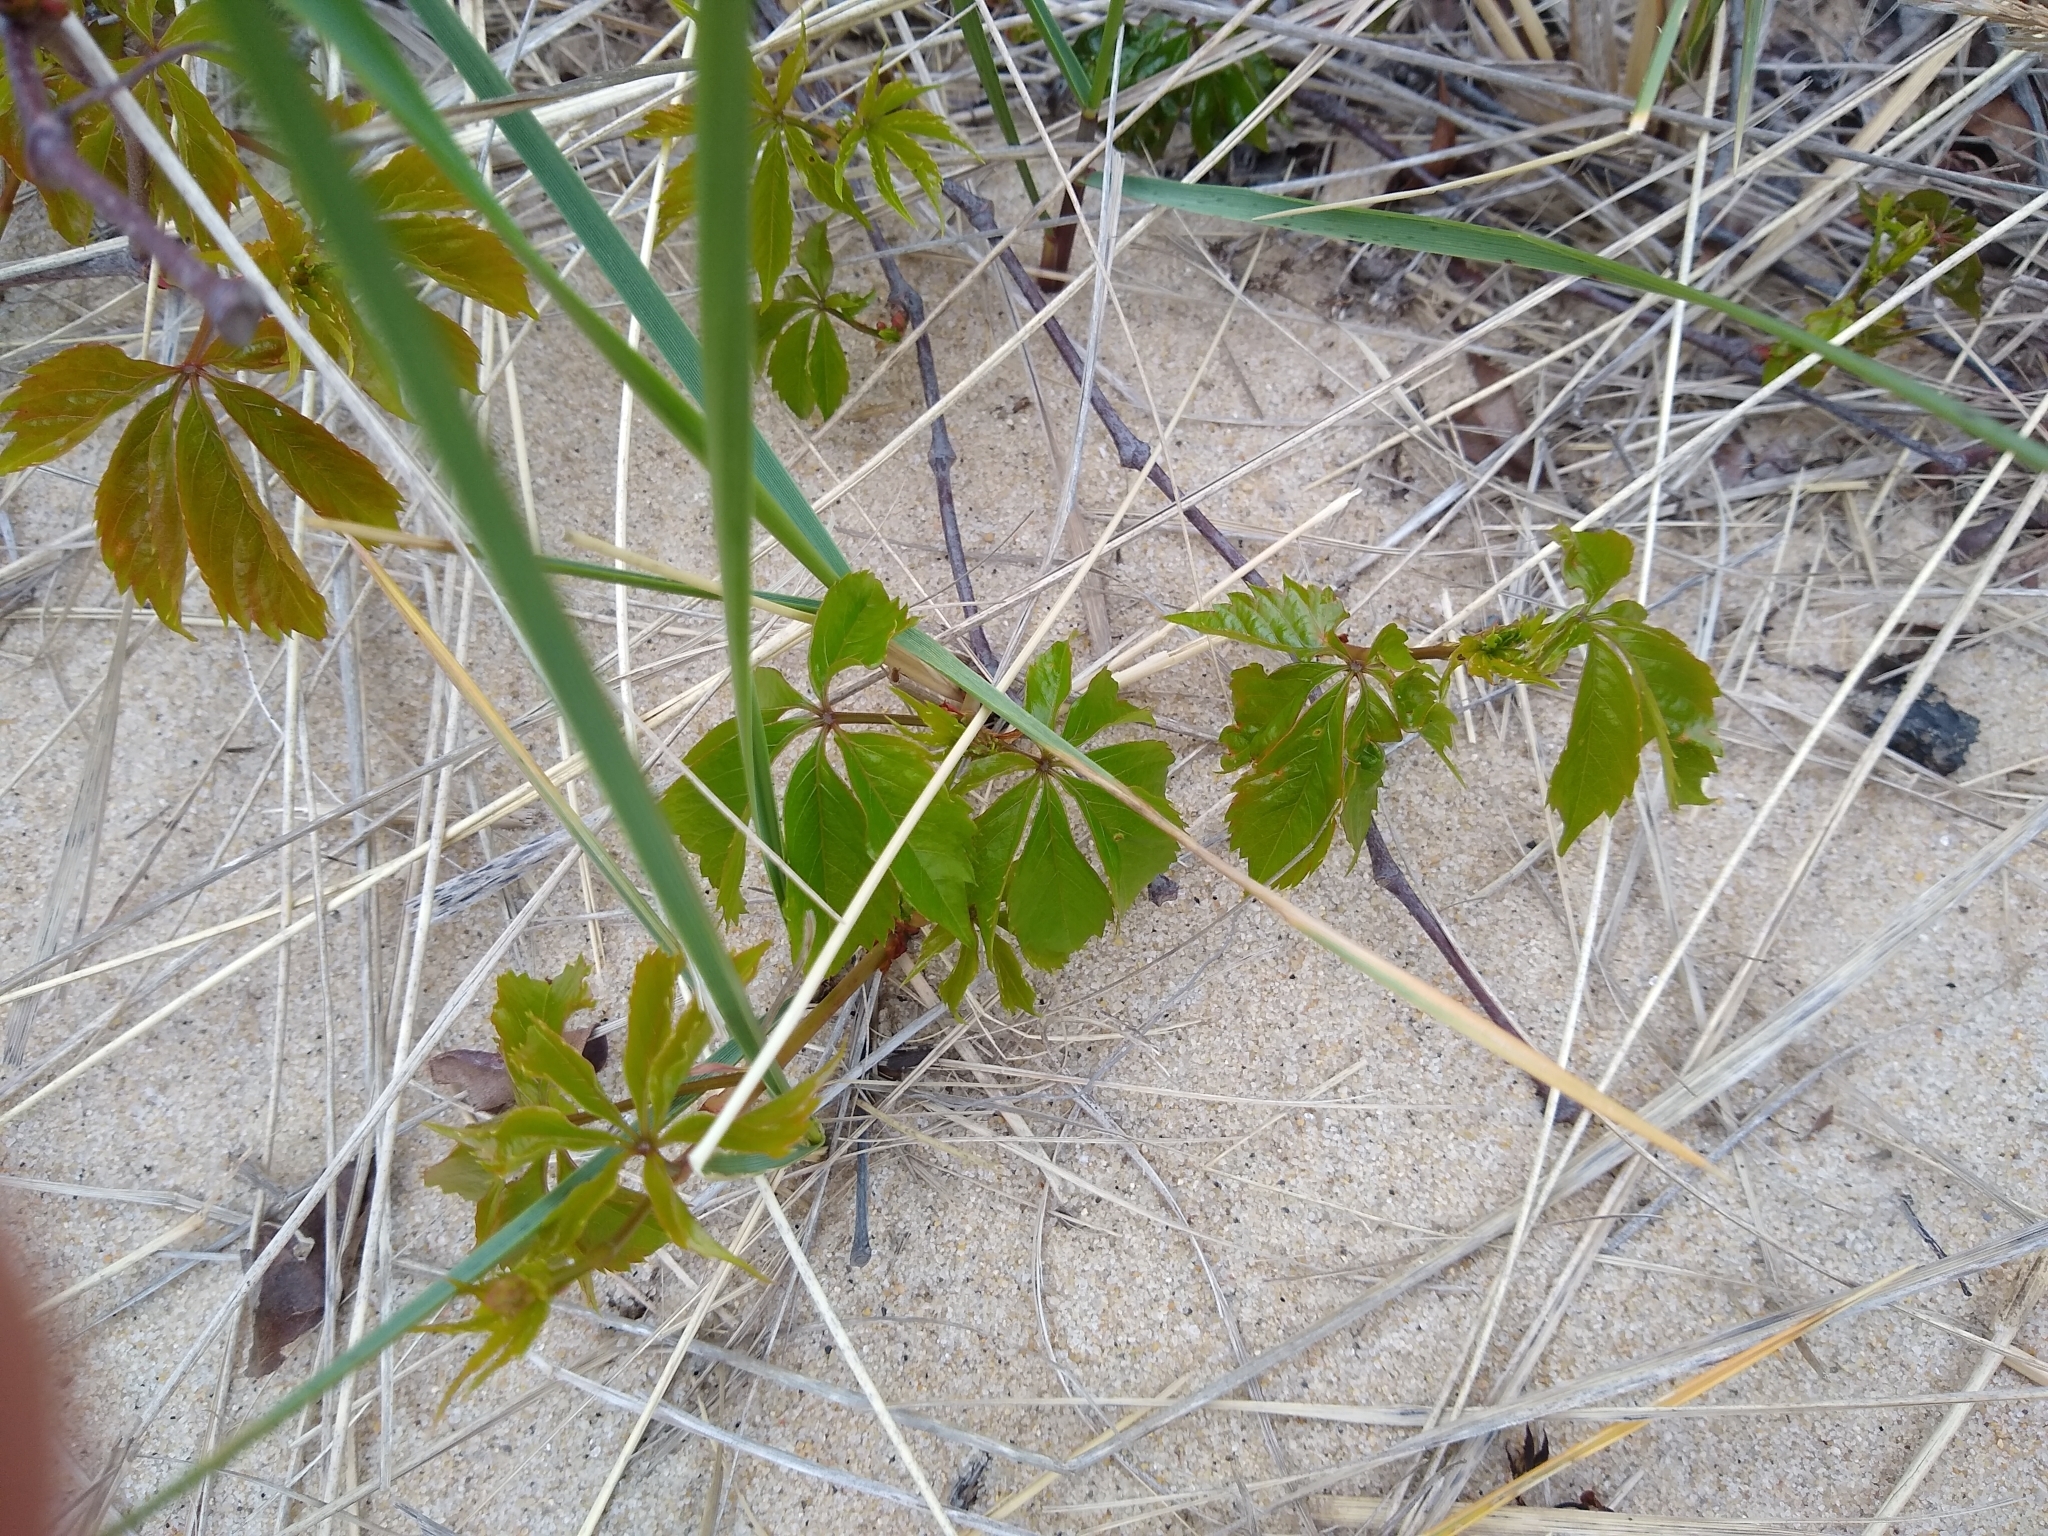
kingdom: Plantae
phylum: Tracheophyta
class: Magnoliopsida
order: Vitales
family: Vitaceae
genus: Parthenocissus
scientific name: Parthenocissus quinquefolia
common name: Virginia-creeper
